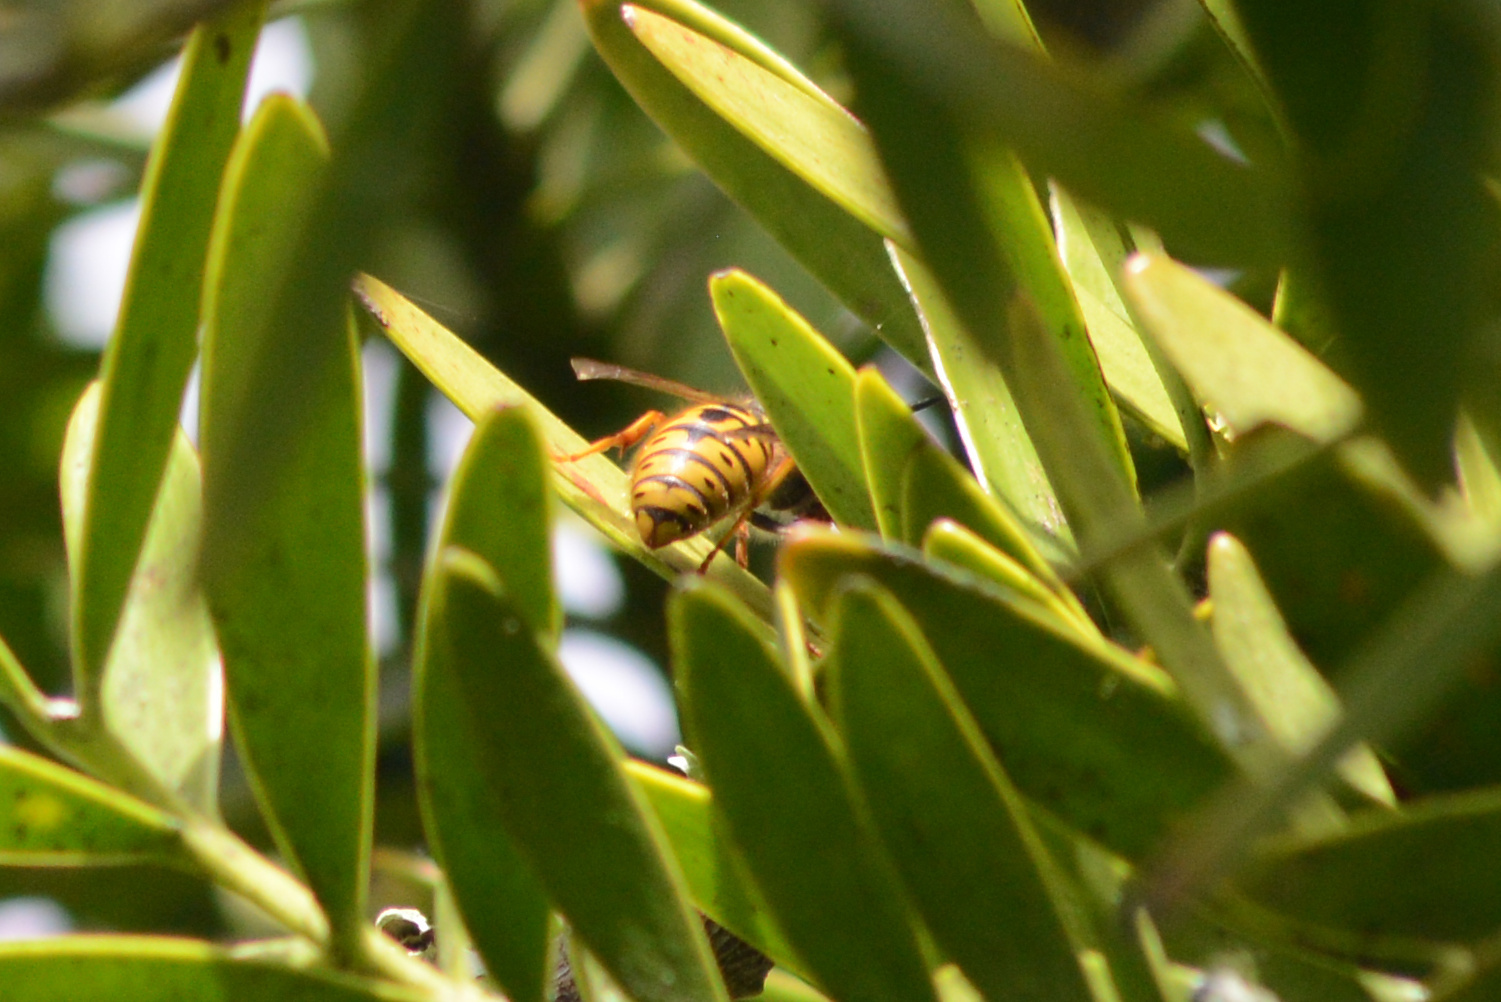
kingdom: Animalia
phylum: Arthropoda
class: Insecta
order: Hymenoptera
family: Vespidae
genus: Vespula
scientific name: Vespula germanica
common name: German wasp
